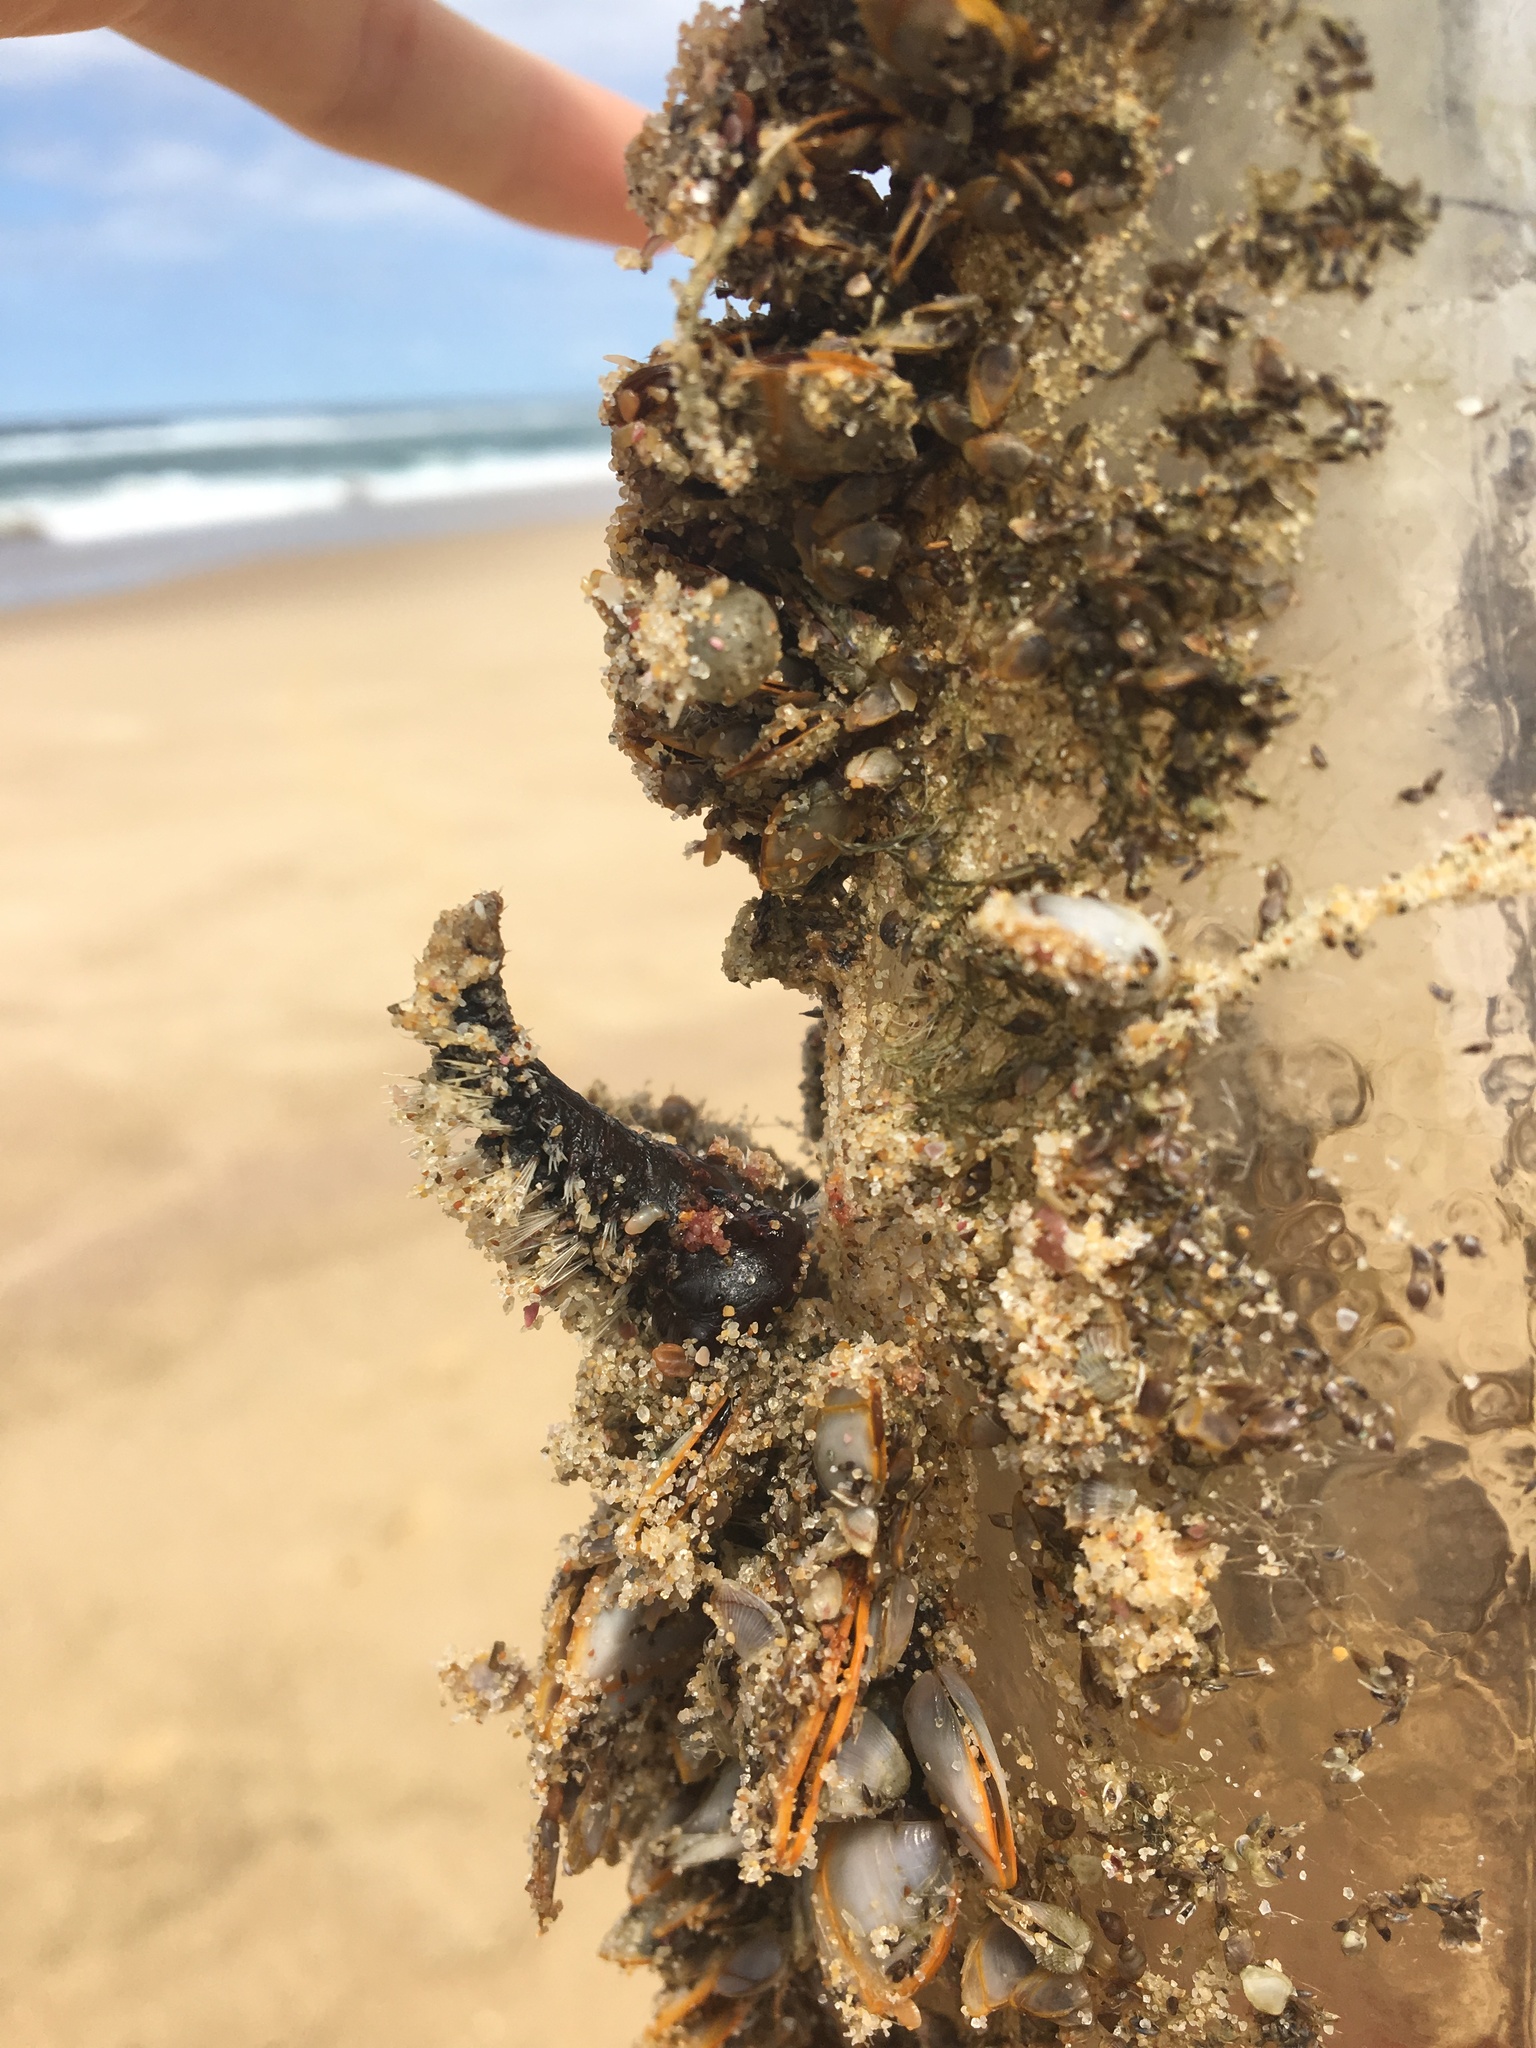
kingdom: Animalia
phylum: Annelida
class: Polychaeta
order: Amphinomida
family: Amphinomidae
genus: Amphinome
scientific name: Amphinome rostrata
